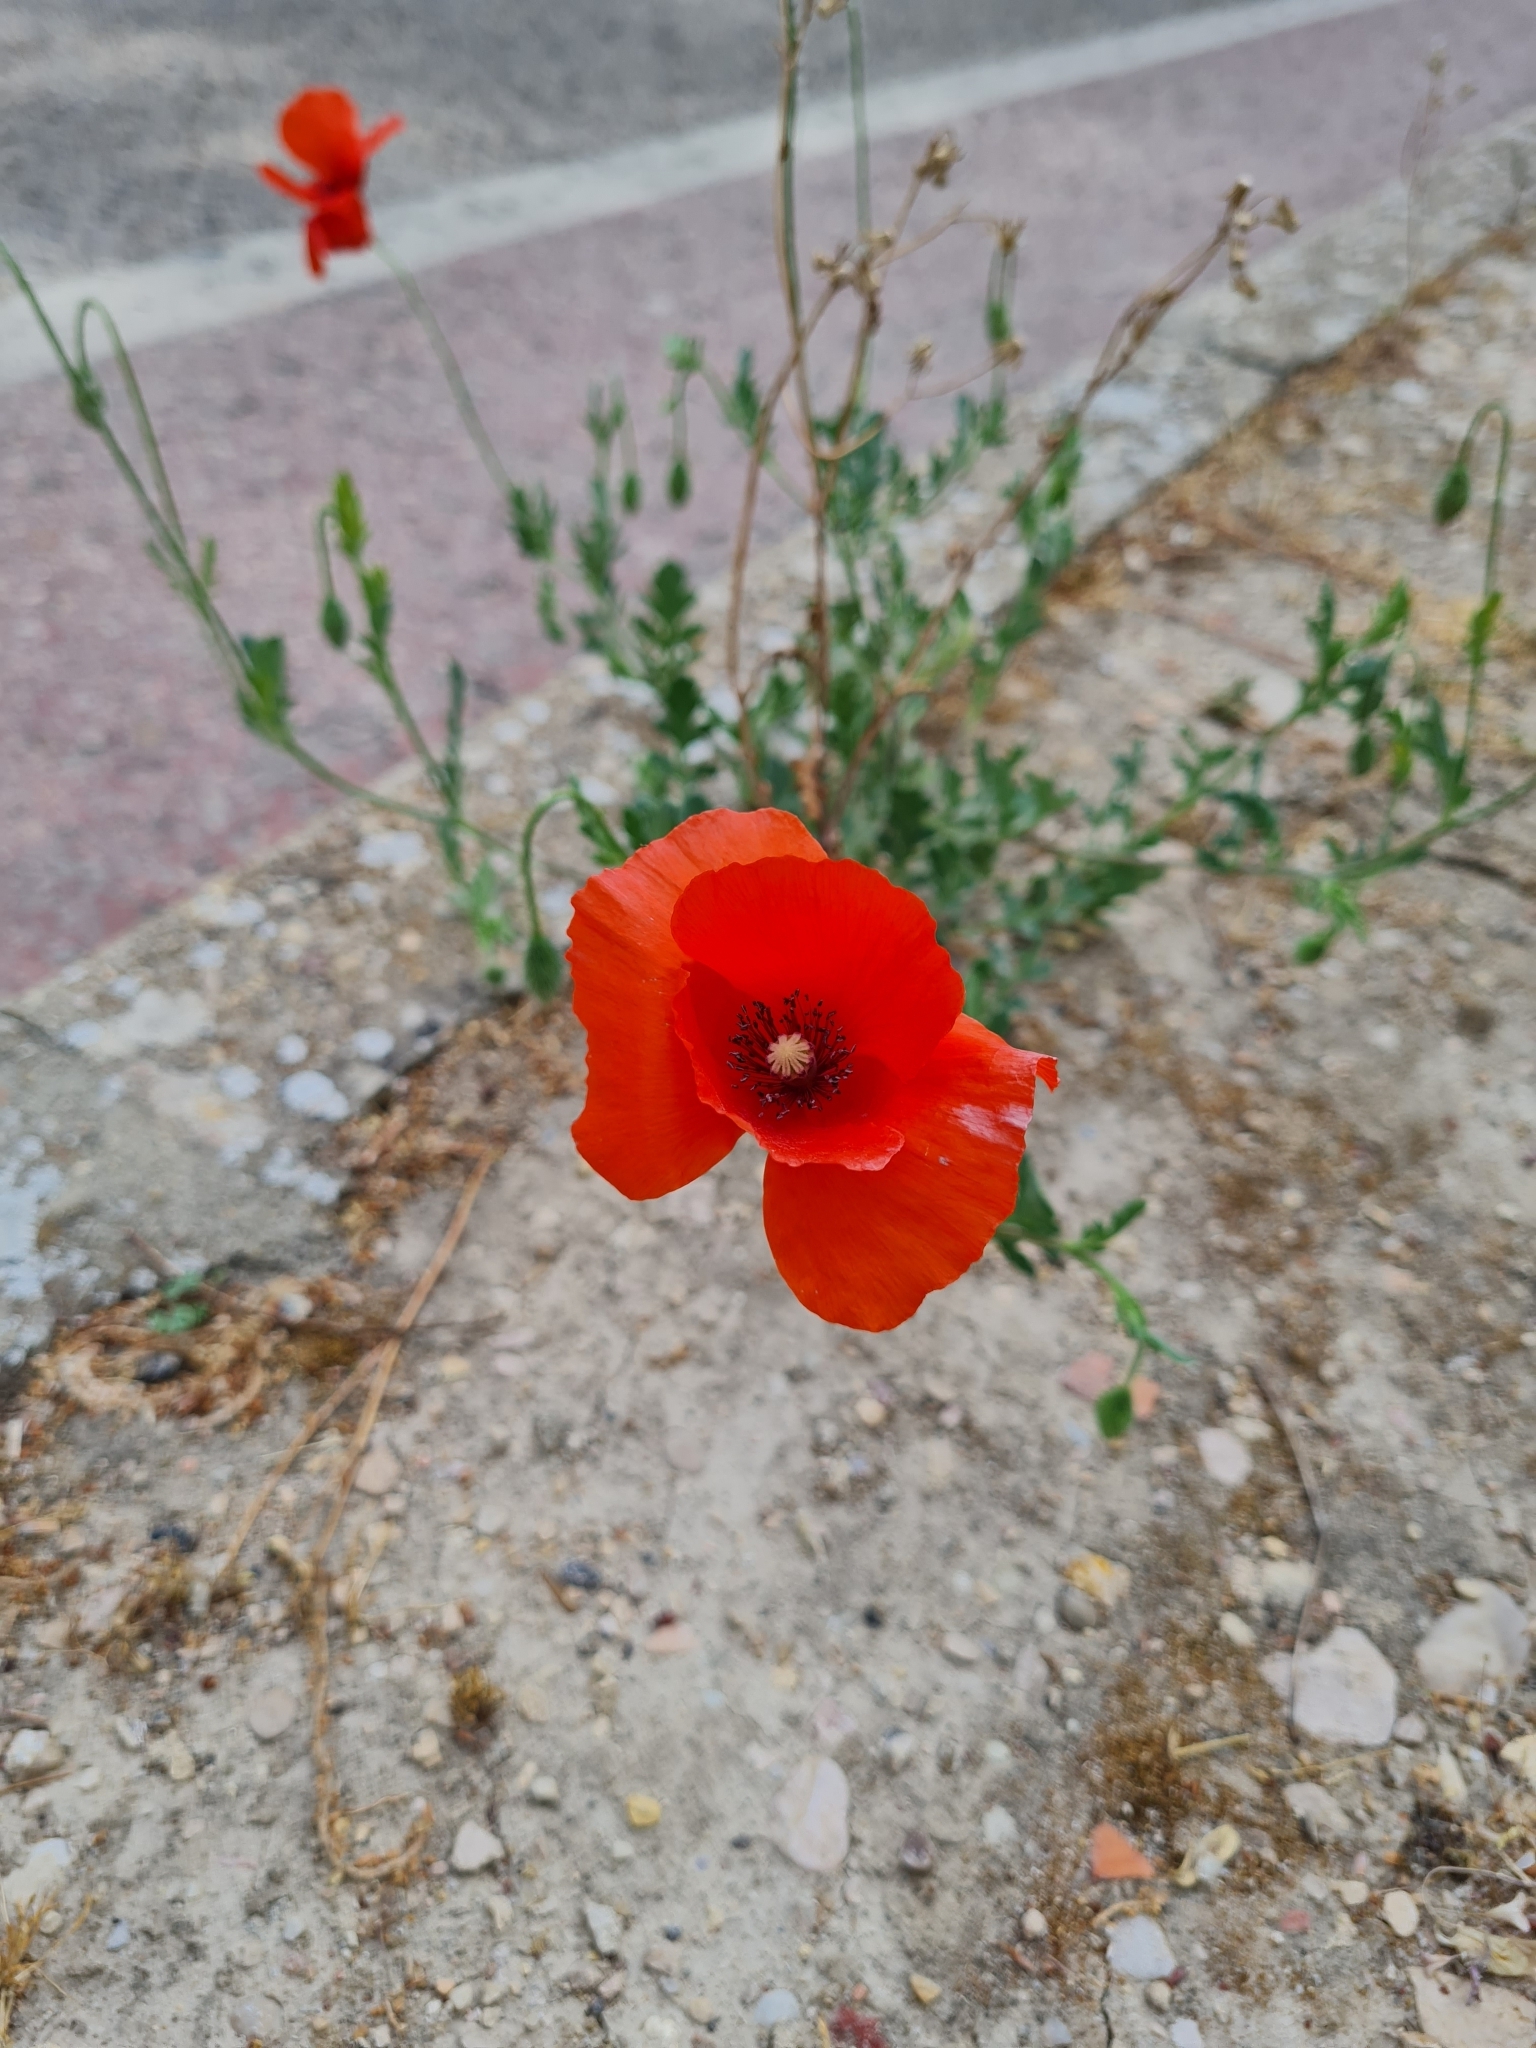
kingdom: Plantae
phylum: Tracheophyta
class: Magnoliopsida
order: Ranunculales
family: Papaveraceae
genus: Papaver
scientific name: Papaver rhoeas
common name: Corn poppy
